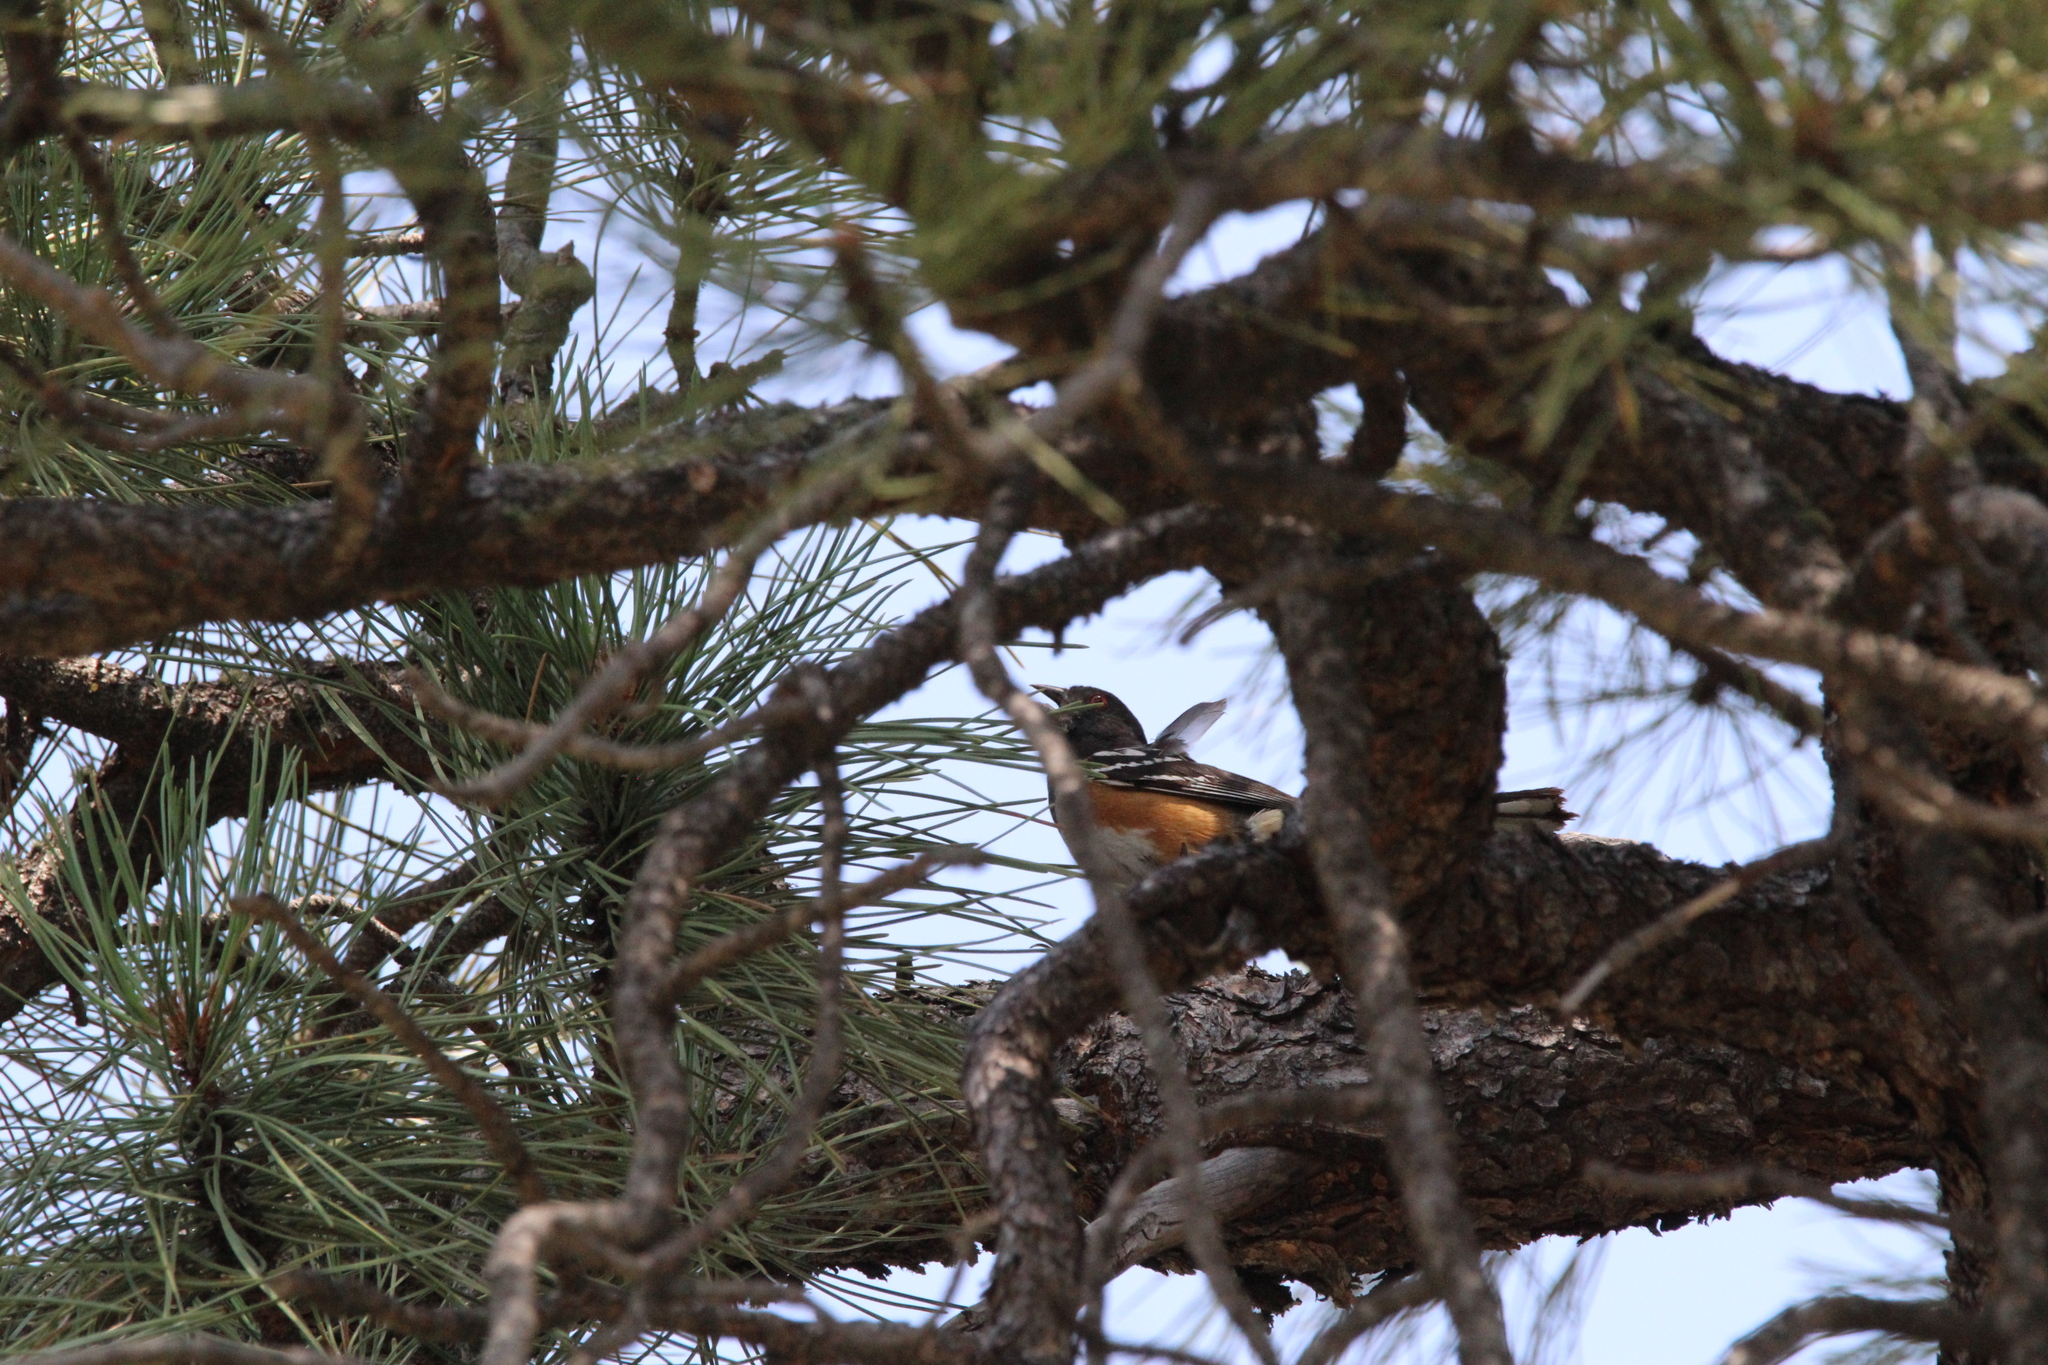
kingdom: Animalia
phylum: Chordata
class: Aves
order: Passeriformes
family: Passerellidae
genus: Pipilo
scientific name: Pipilo maculatus
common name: Spotted towhee
